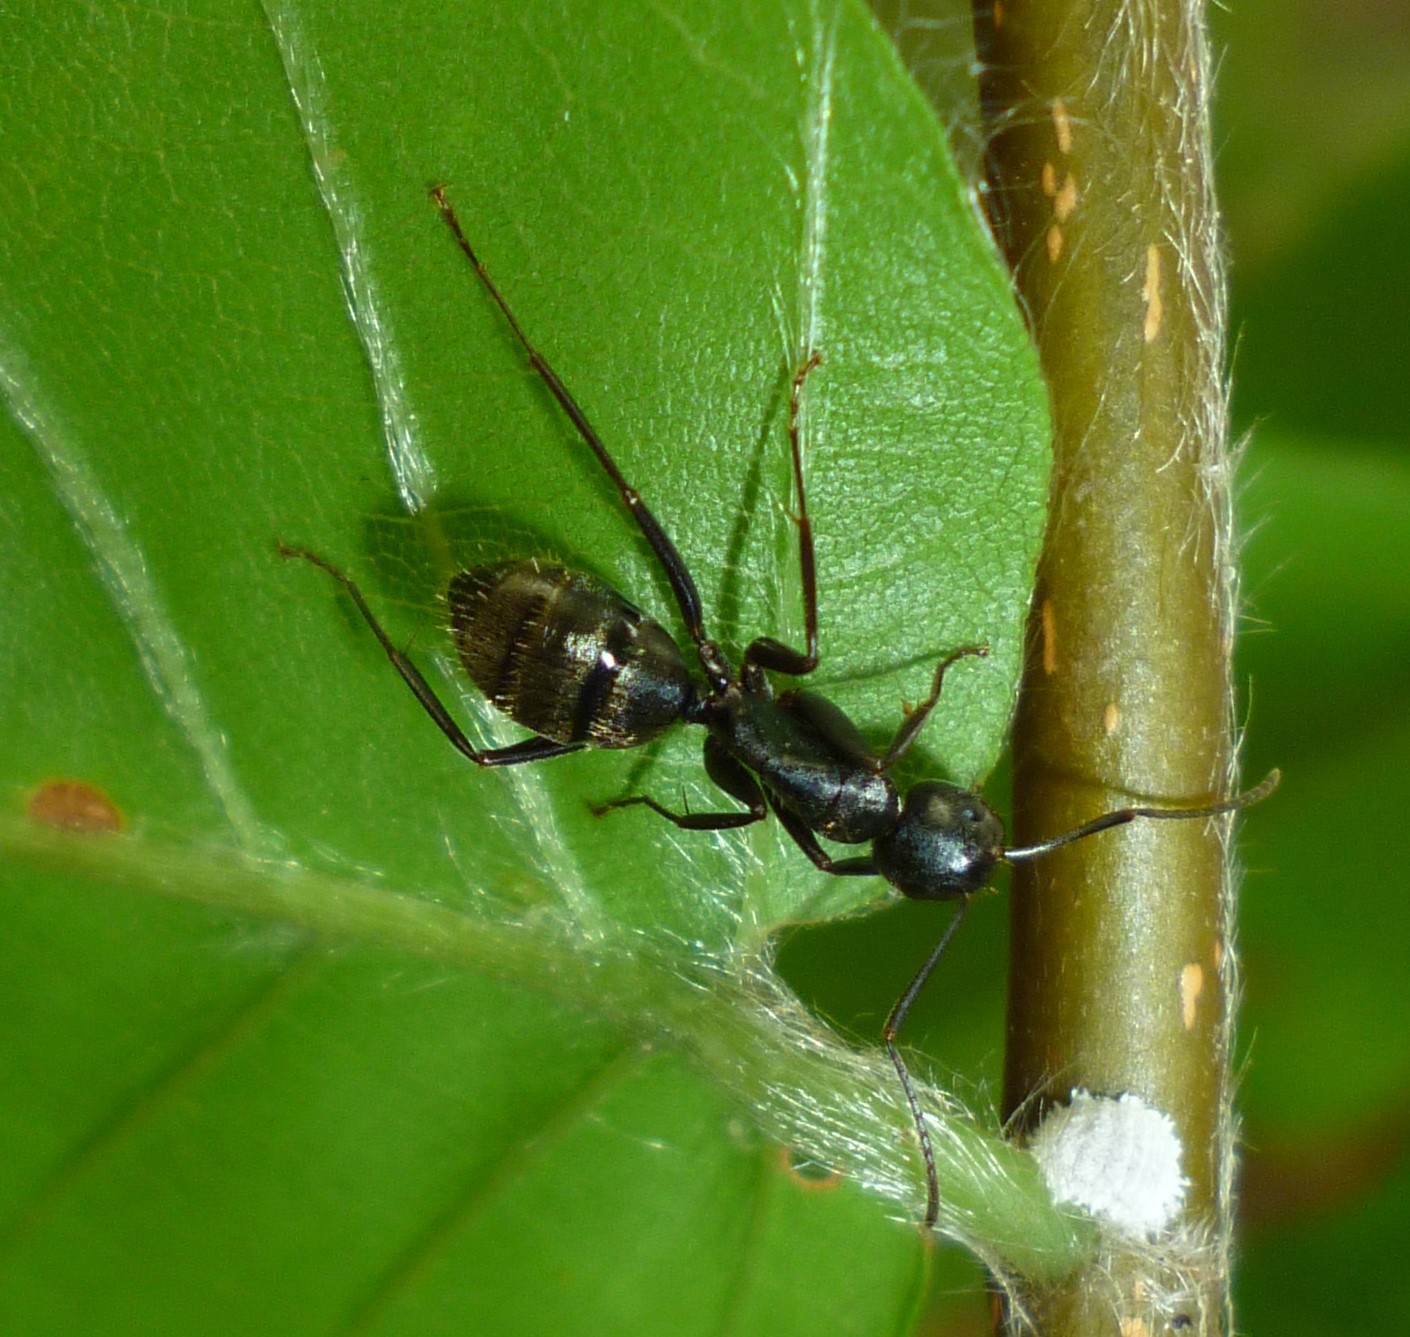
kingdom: Animalia
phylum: Arthropoda
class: Insecta
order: Hymenoptera
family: Formicidae
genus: Camponotus
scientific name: Camponotus pennsylvanicus
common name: Black carpenter ant
